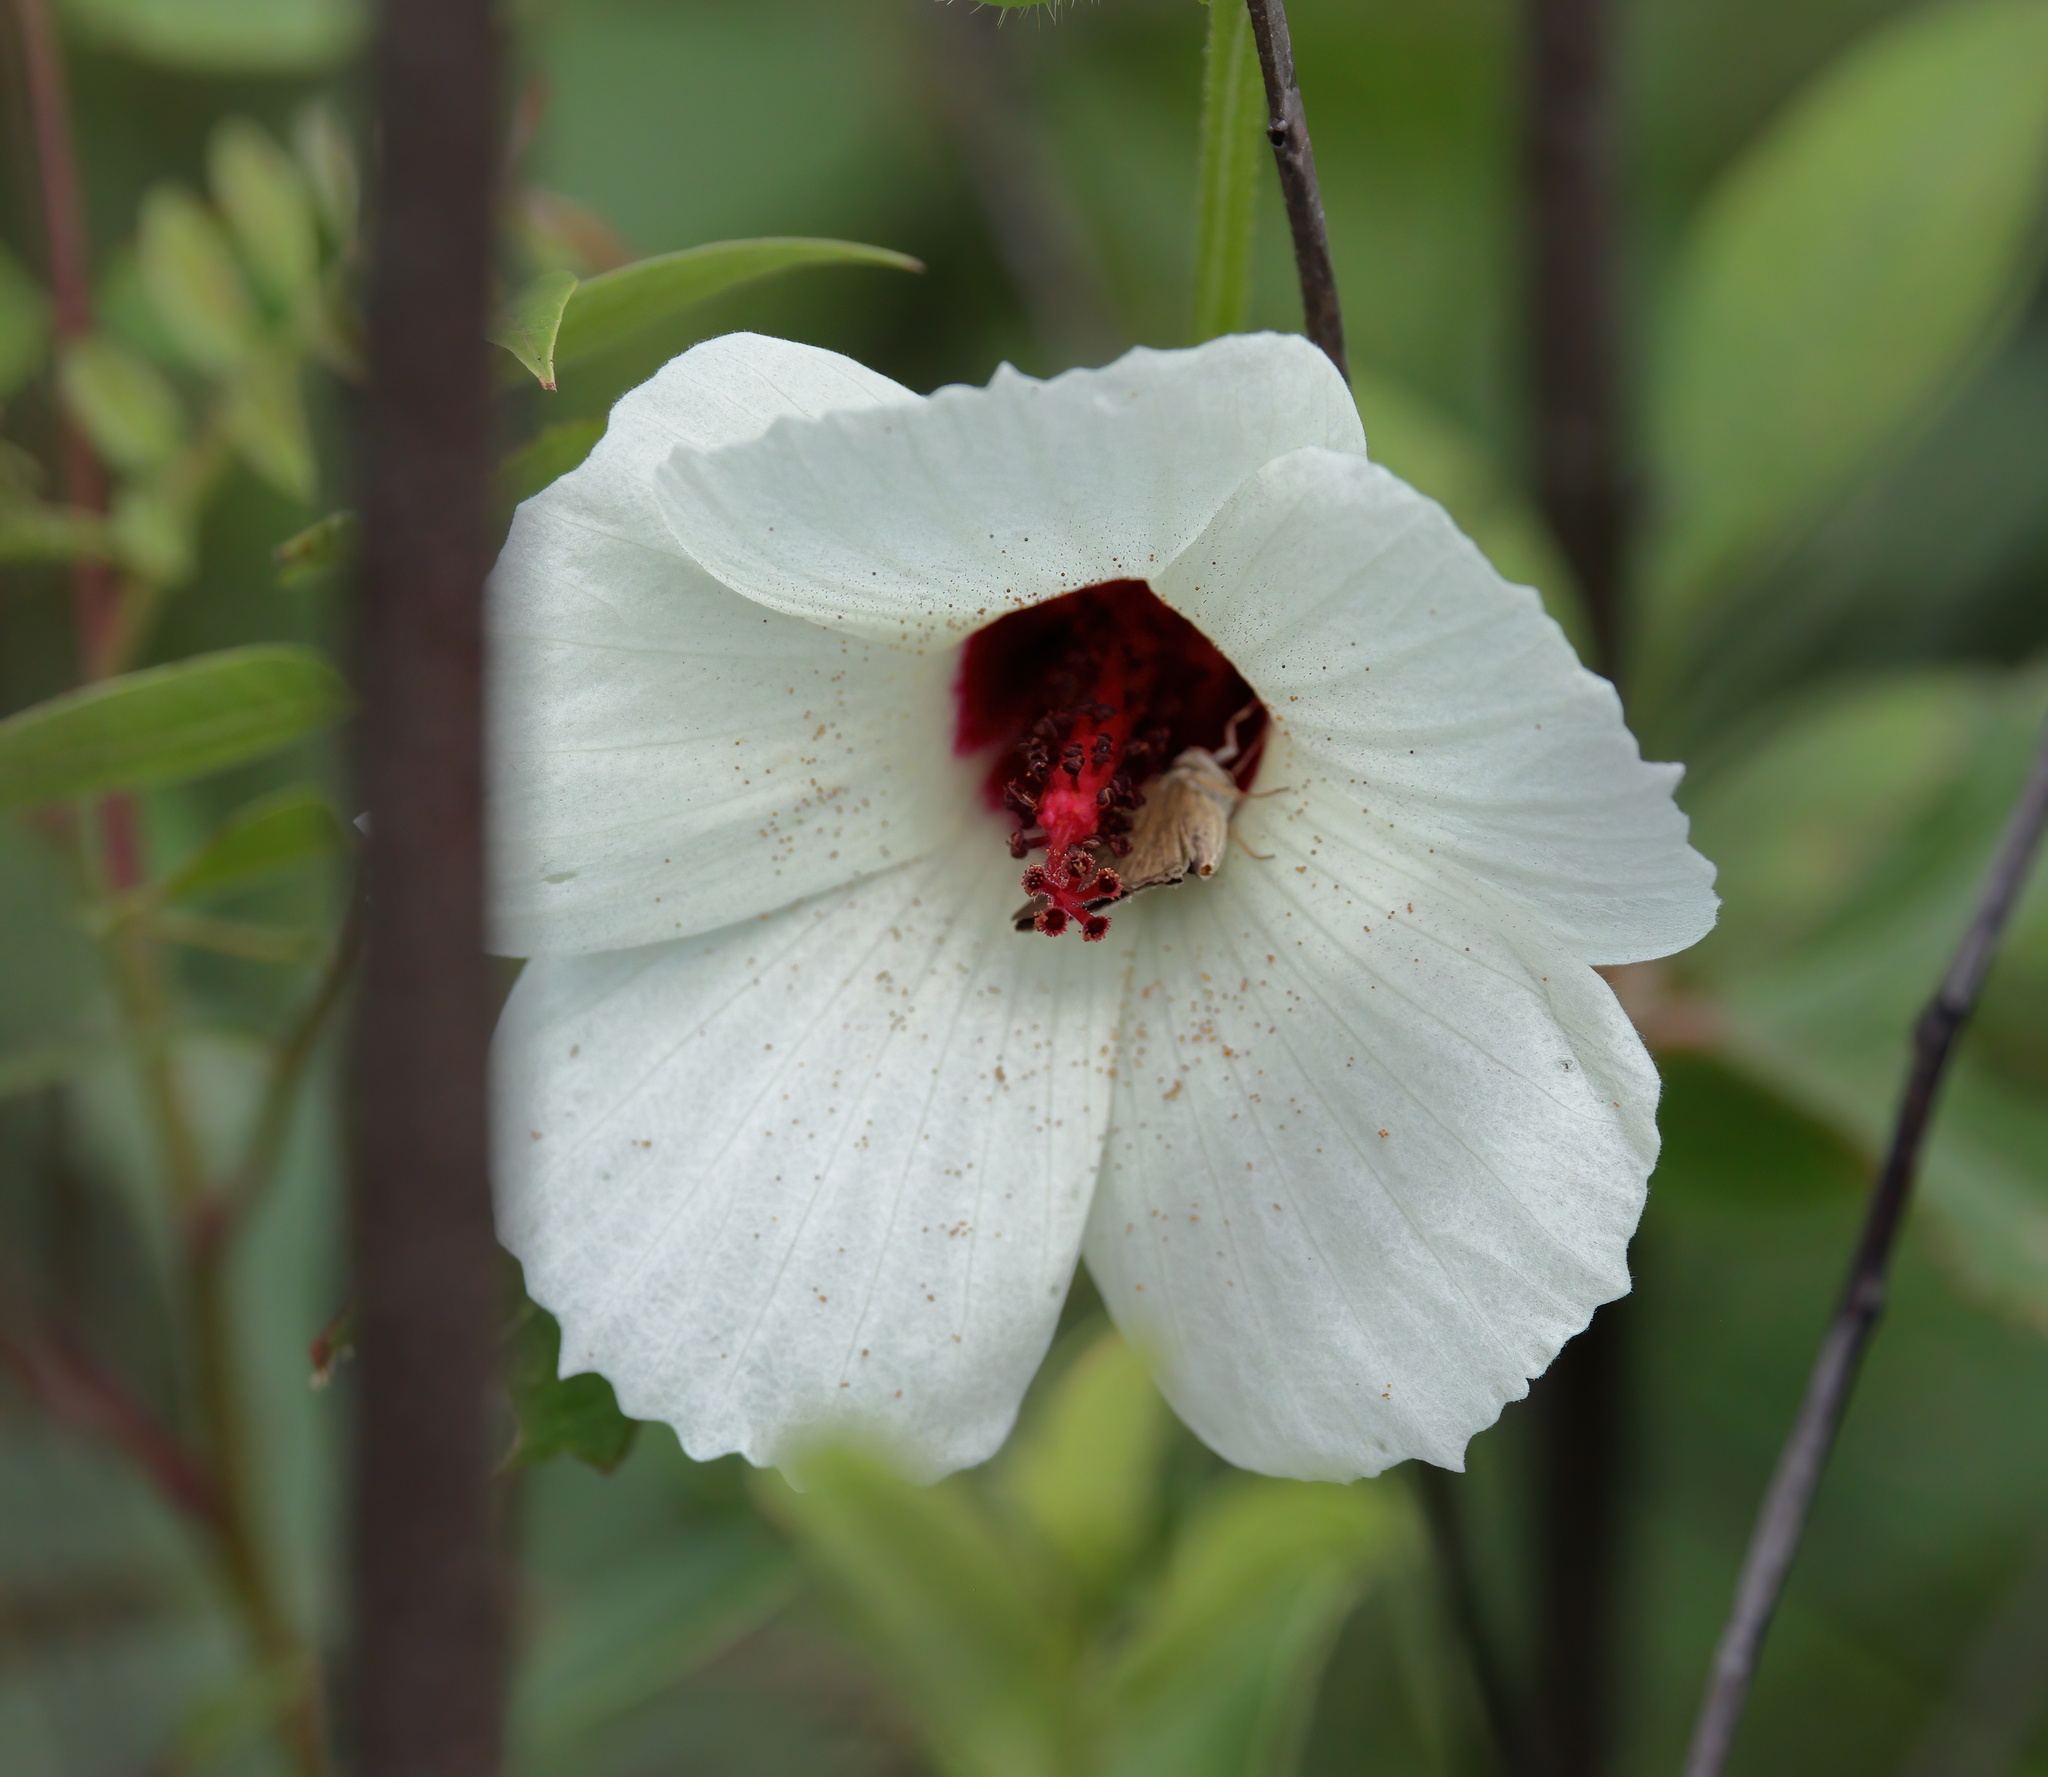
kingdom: Plantae
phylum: Tracheophyta
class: Magnoliopsida
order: Malvales
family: Malvaceae
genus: Hibiscus
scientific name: Hibiscus aculeatus
